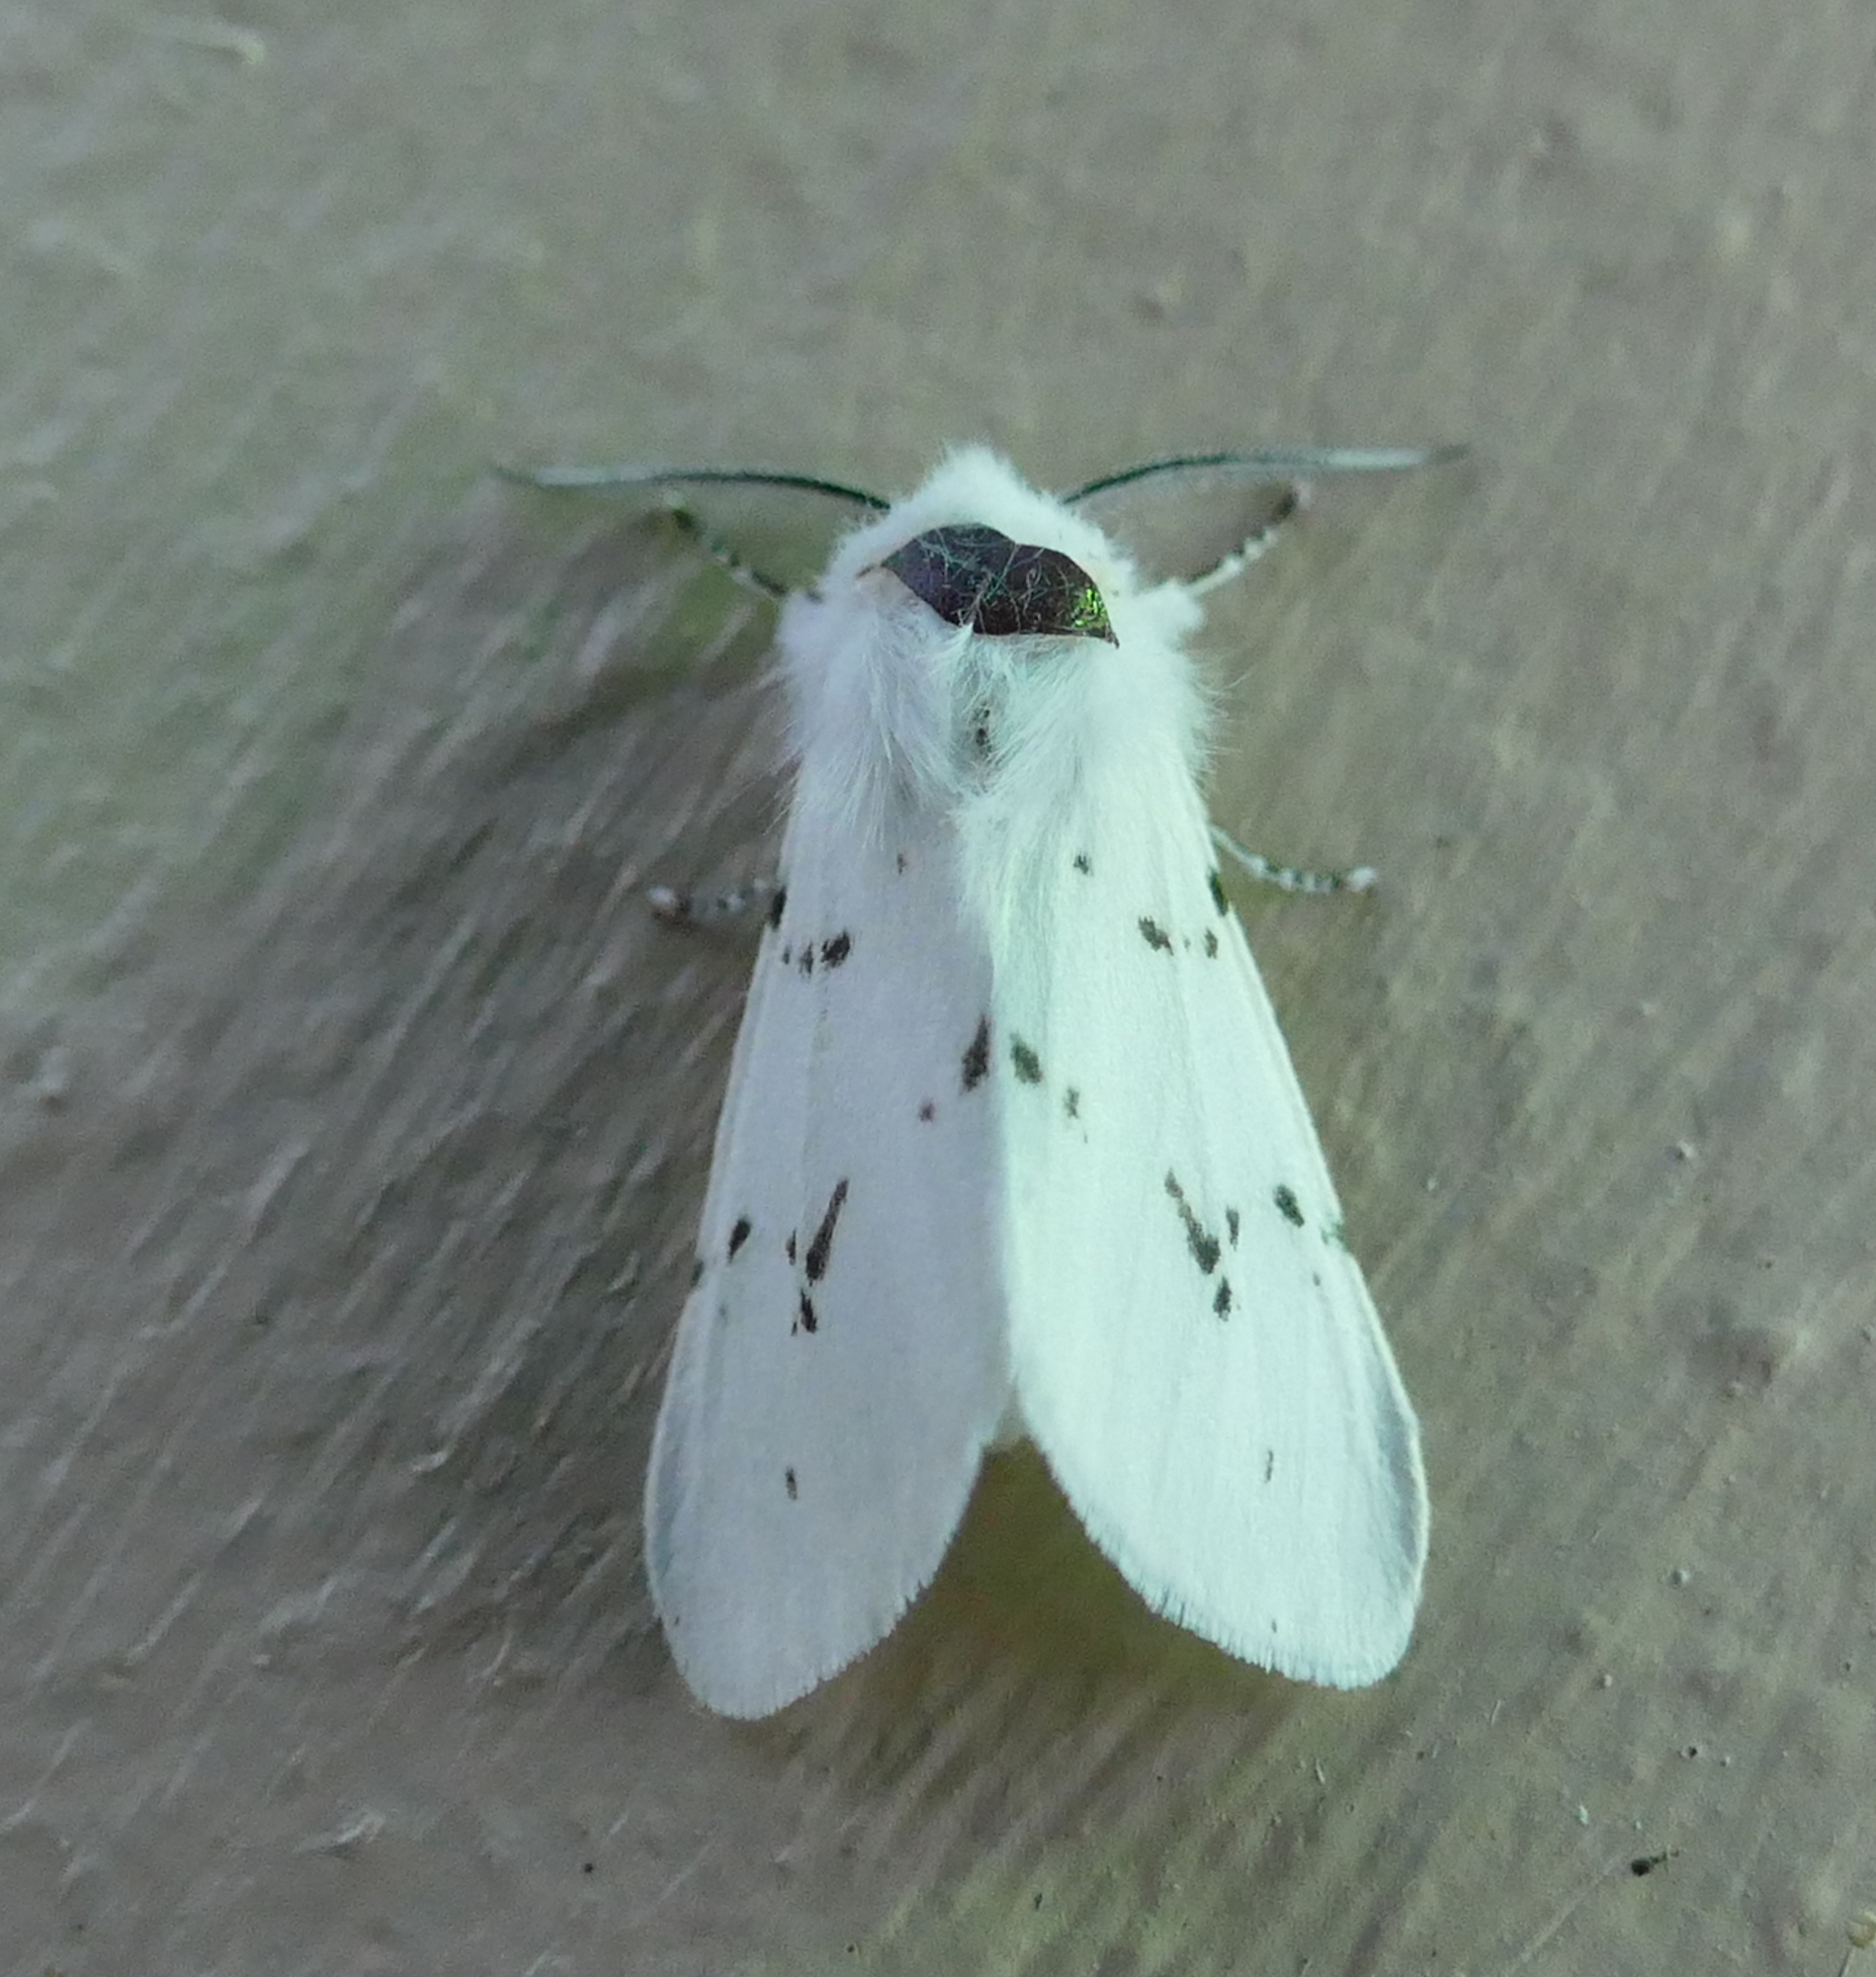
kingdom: Animalia
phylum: Arthropoda
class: Insecta
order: Lepidoptera
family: Erebidae
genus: Hyphantria
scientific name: Hyphantria cunea
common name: American white moth
